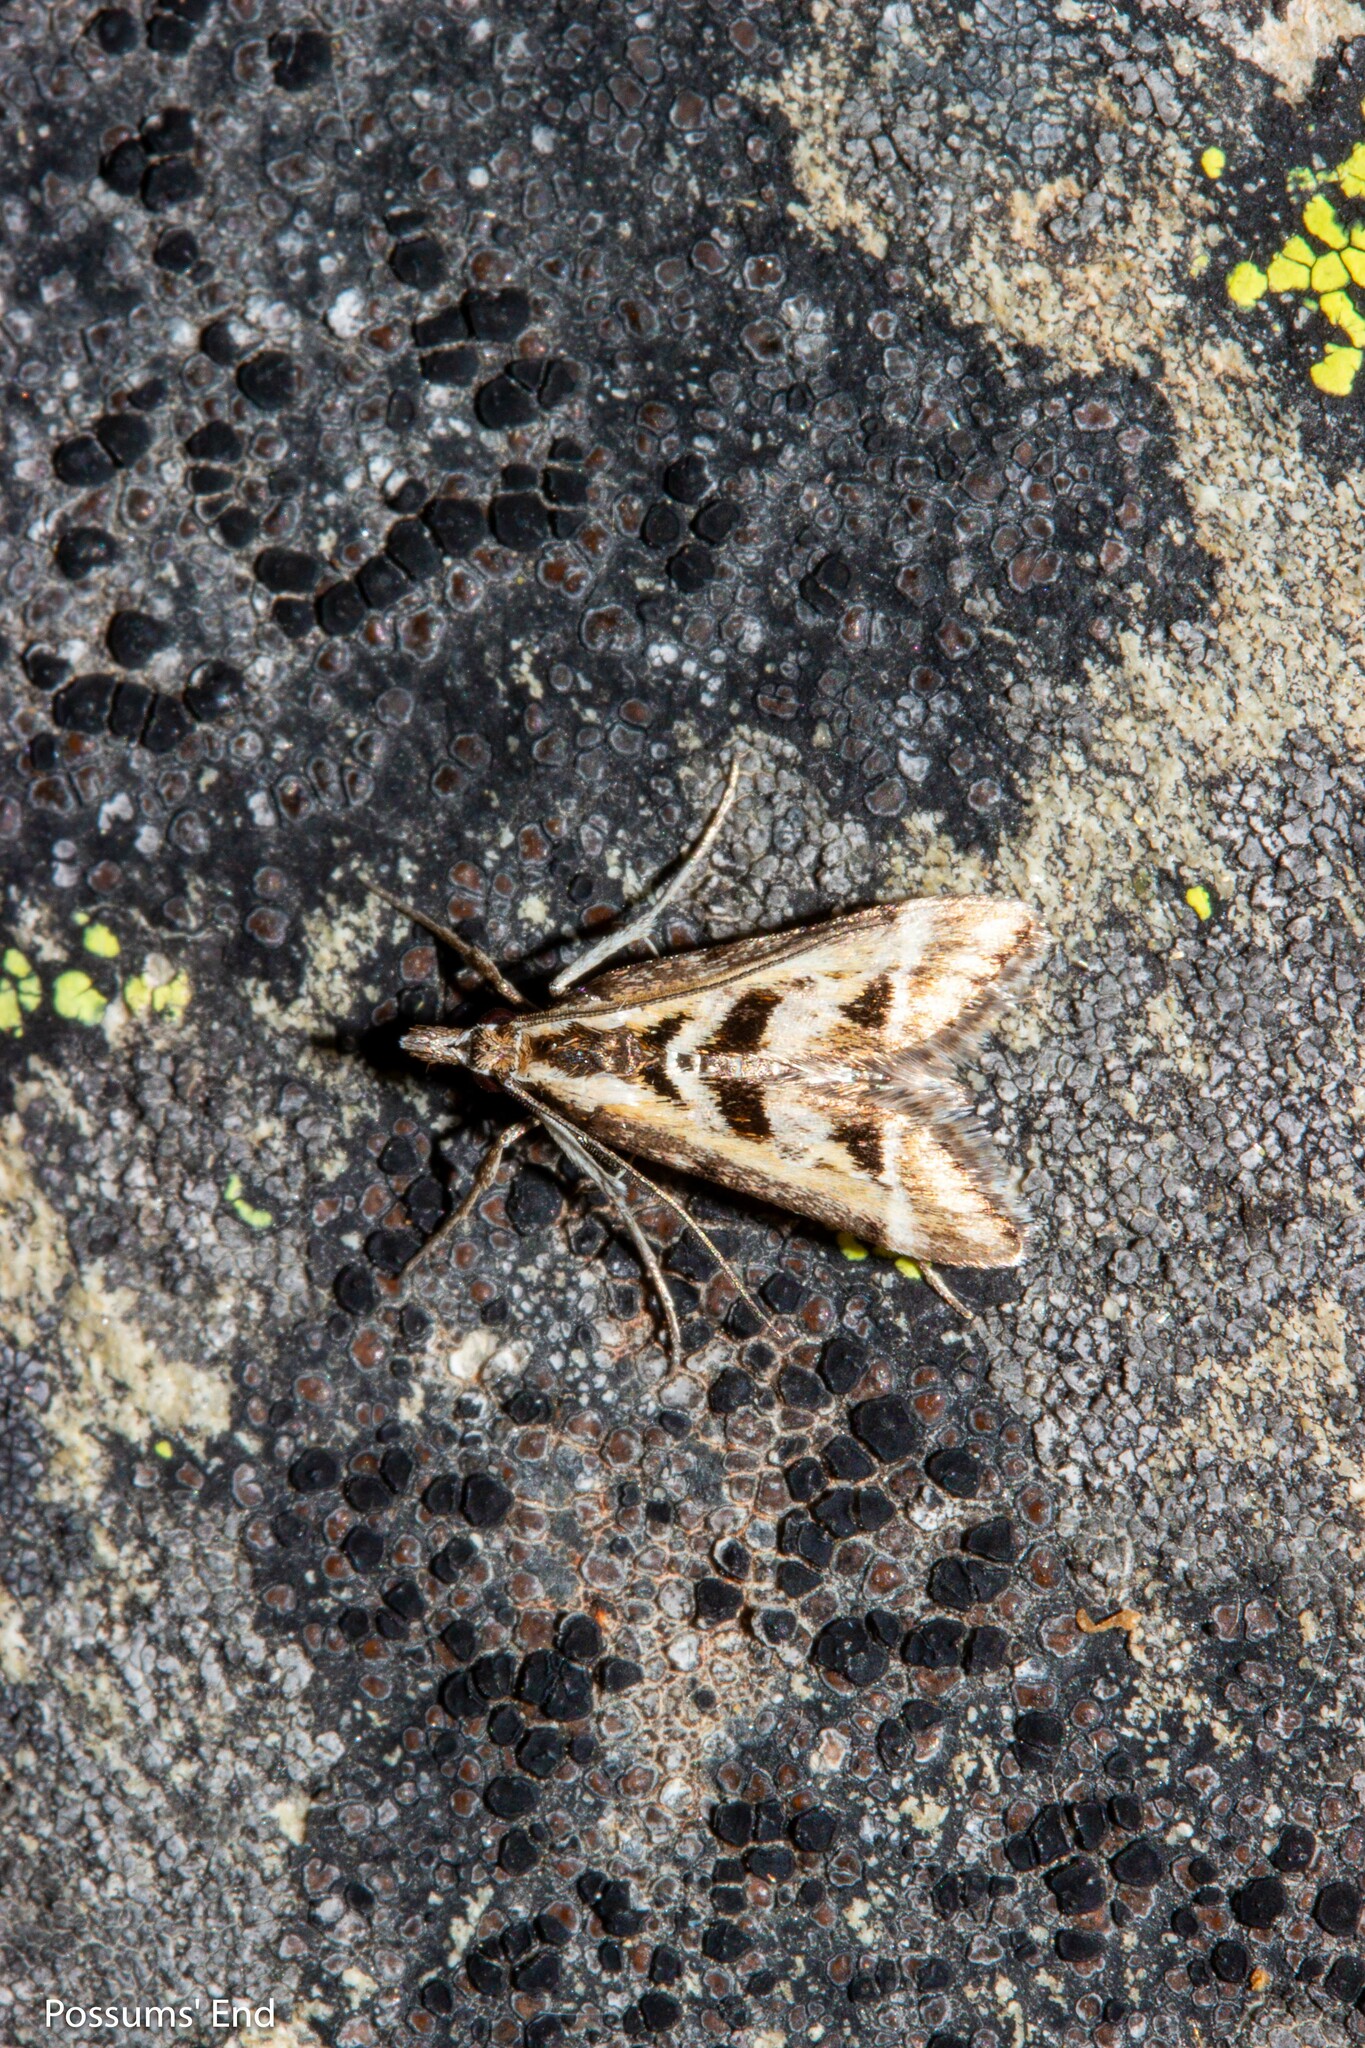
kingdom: Animalia
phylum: Arthropoda
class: Insecta
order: Lepidoptera
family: Crambidae
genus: Diasemia
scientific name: Diasemia grammalis
